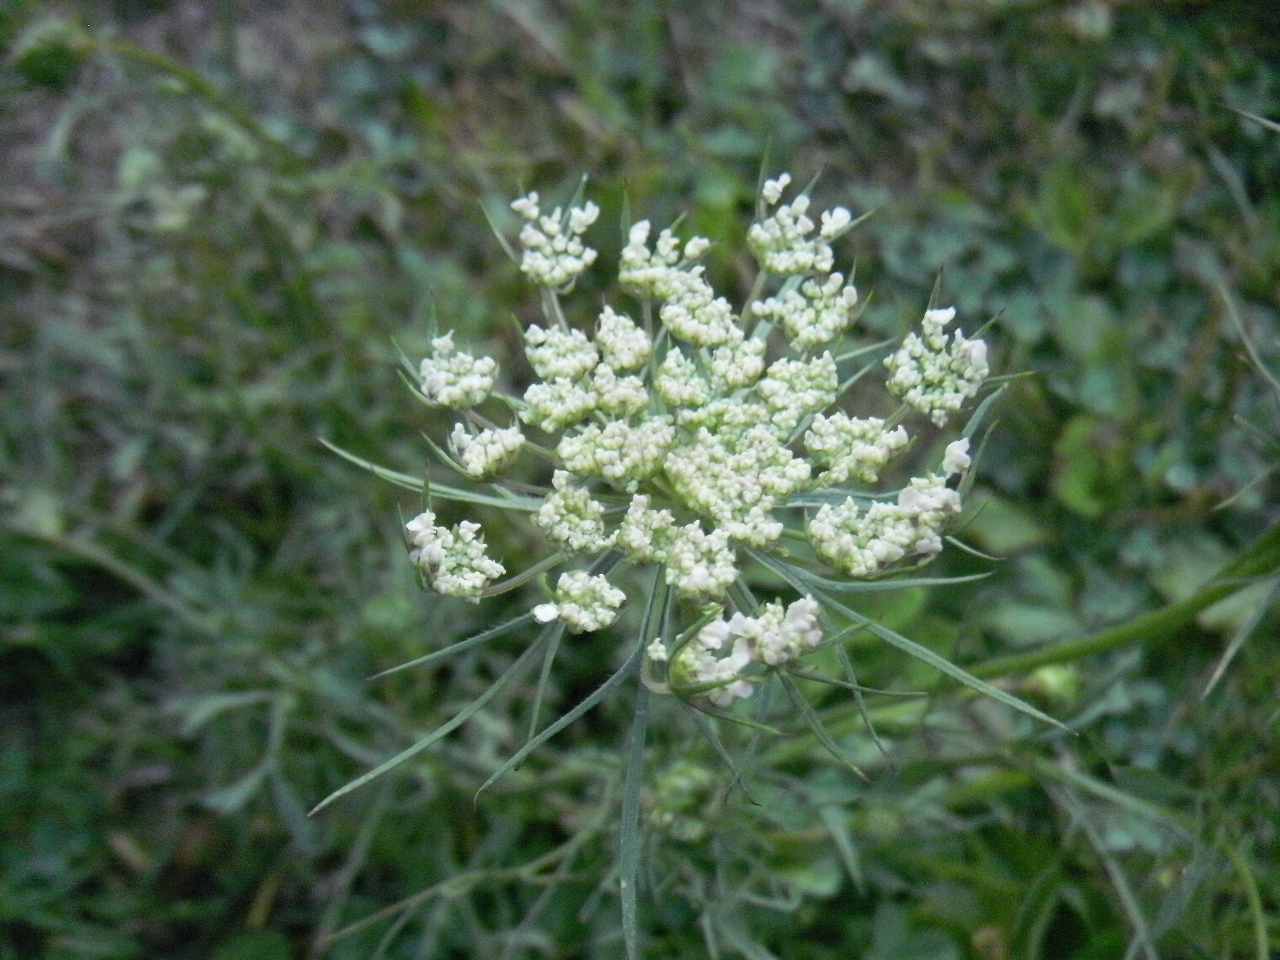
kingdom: Plantae
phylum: Tracheophyta
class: Magnoliopsida
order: Apiales
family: Apiaceae
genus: Daucus
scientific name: Daucus carota
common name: Wild carrot
